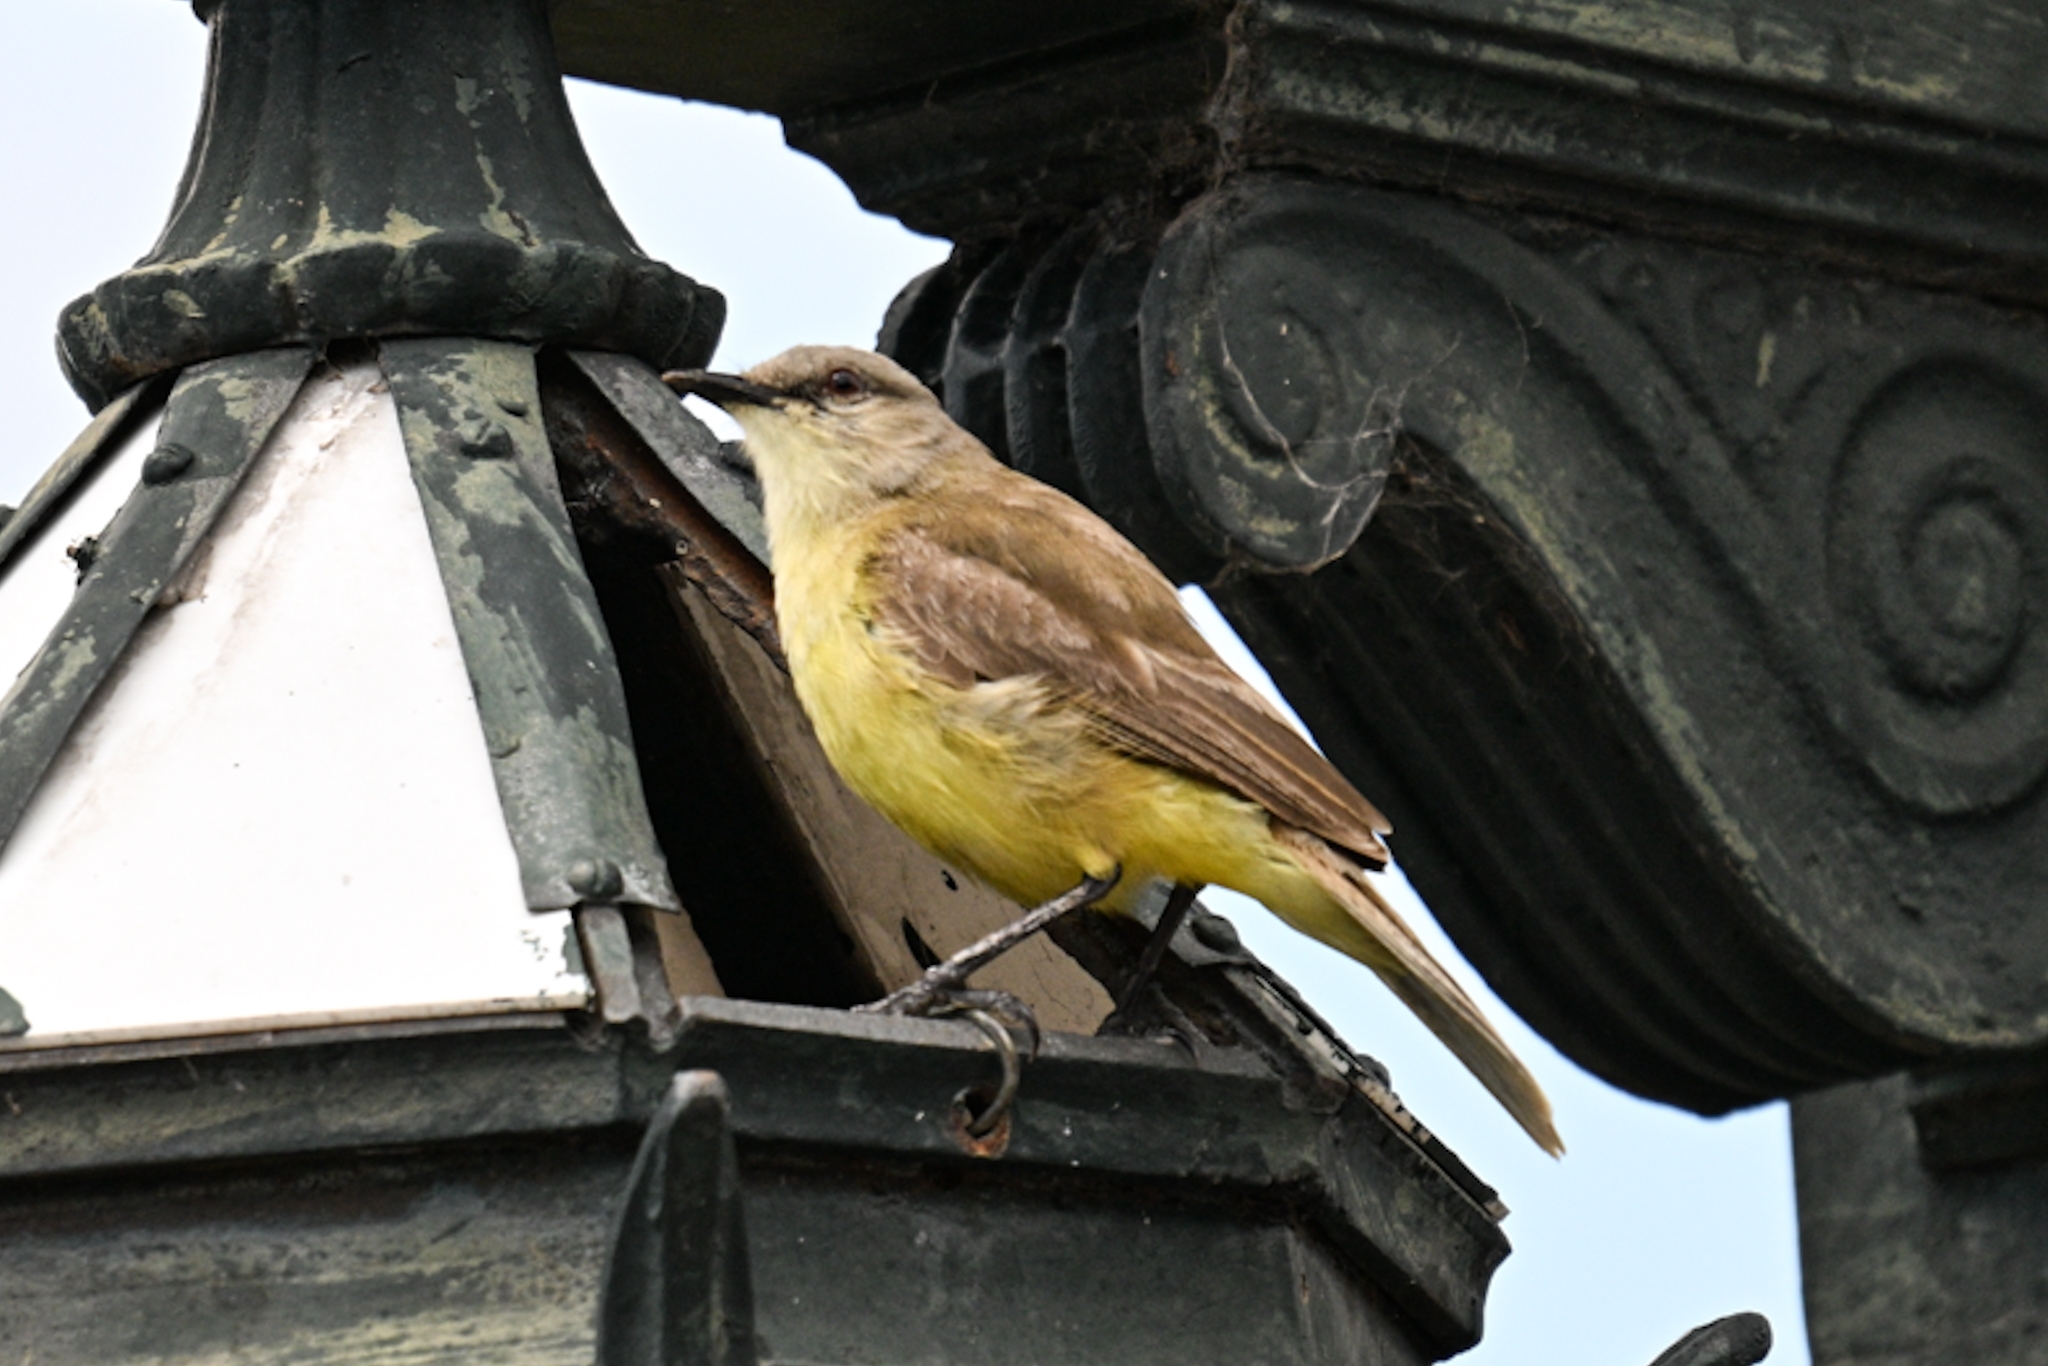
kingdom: Animalia
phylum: Chordata
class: Aves
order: Passeriformes
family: Tyrannidae
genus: Machetornis
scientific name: Machetornis rixosa
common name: Cattle tyrant
